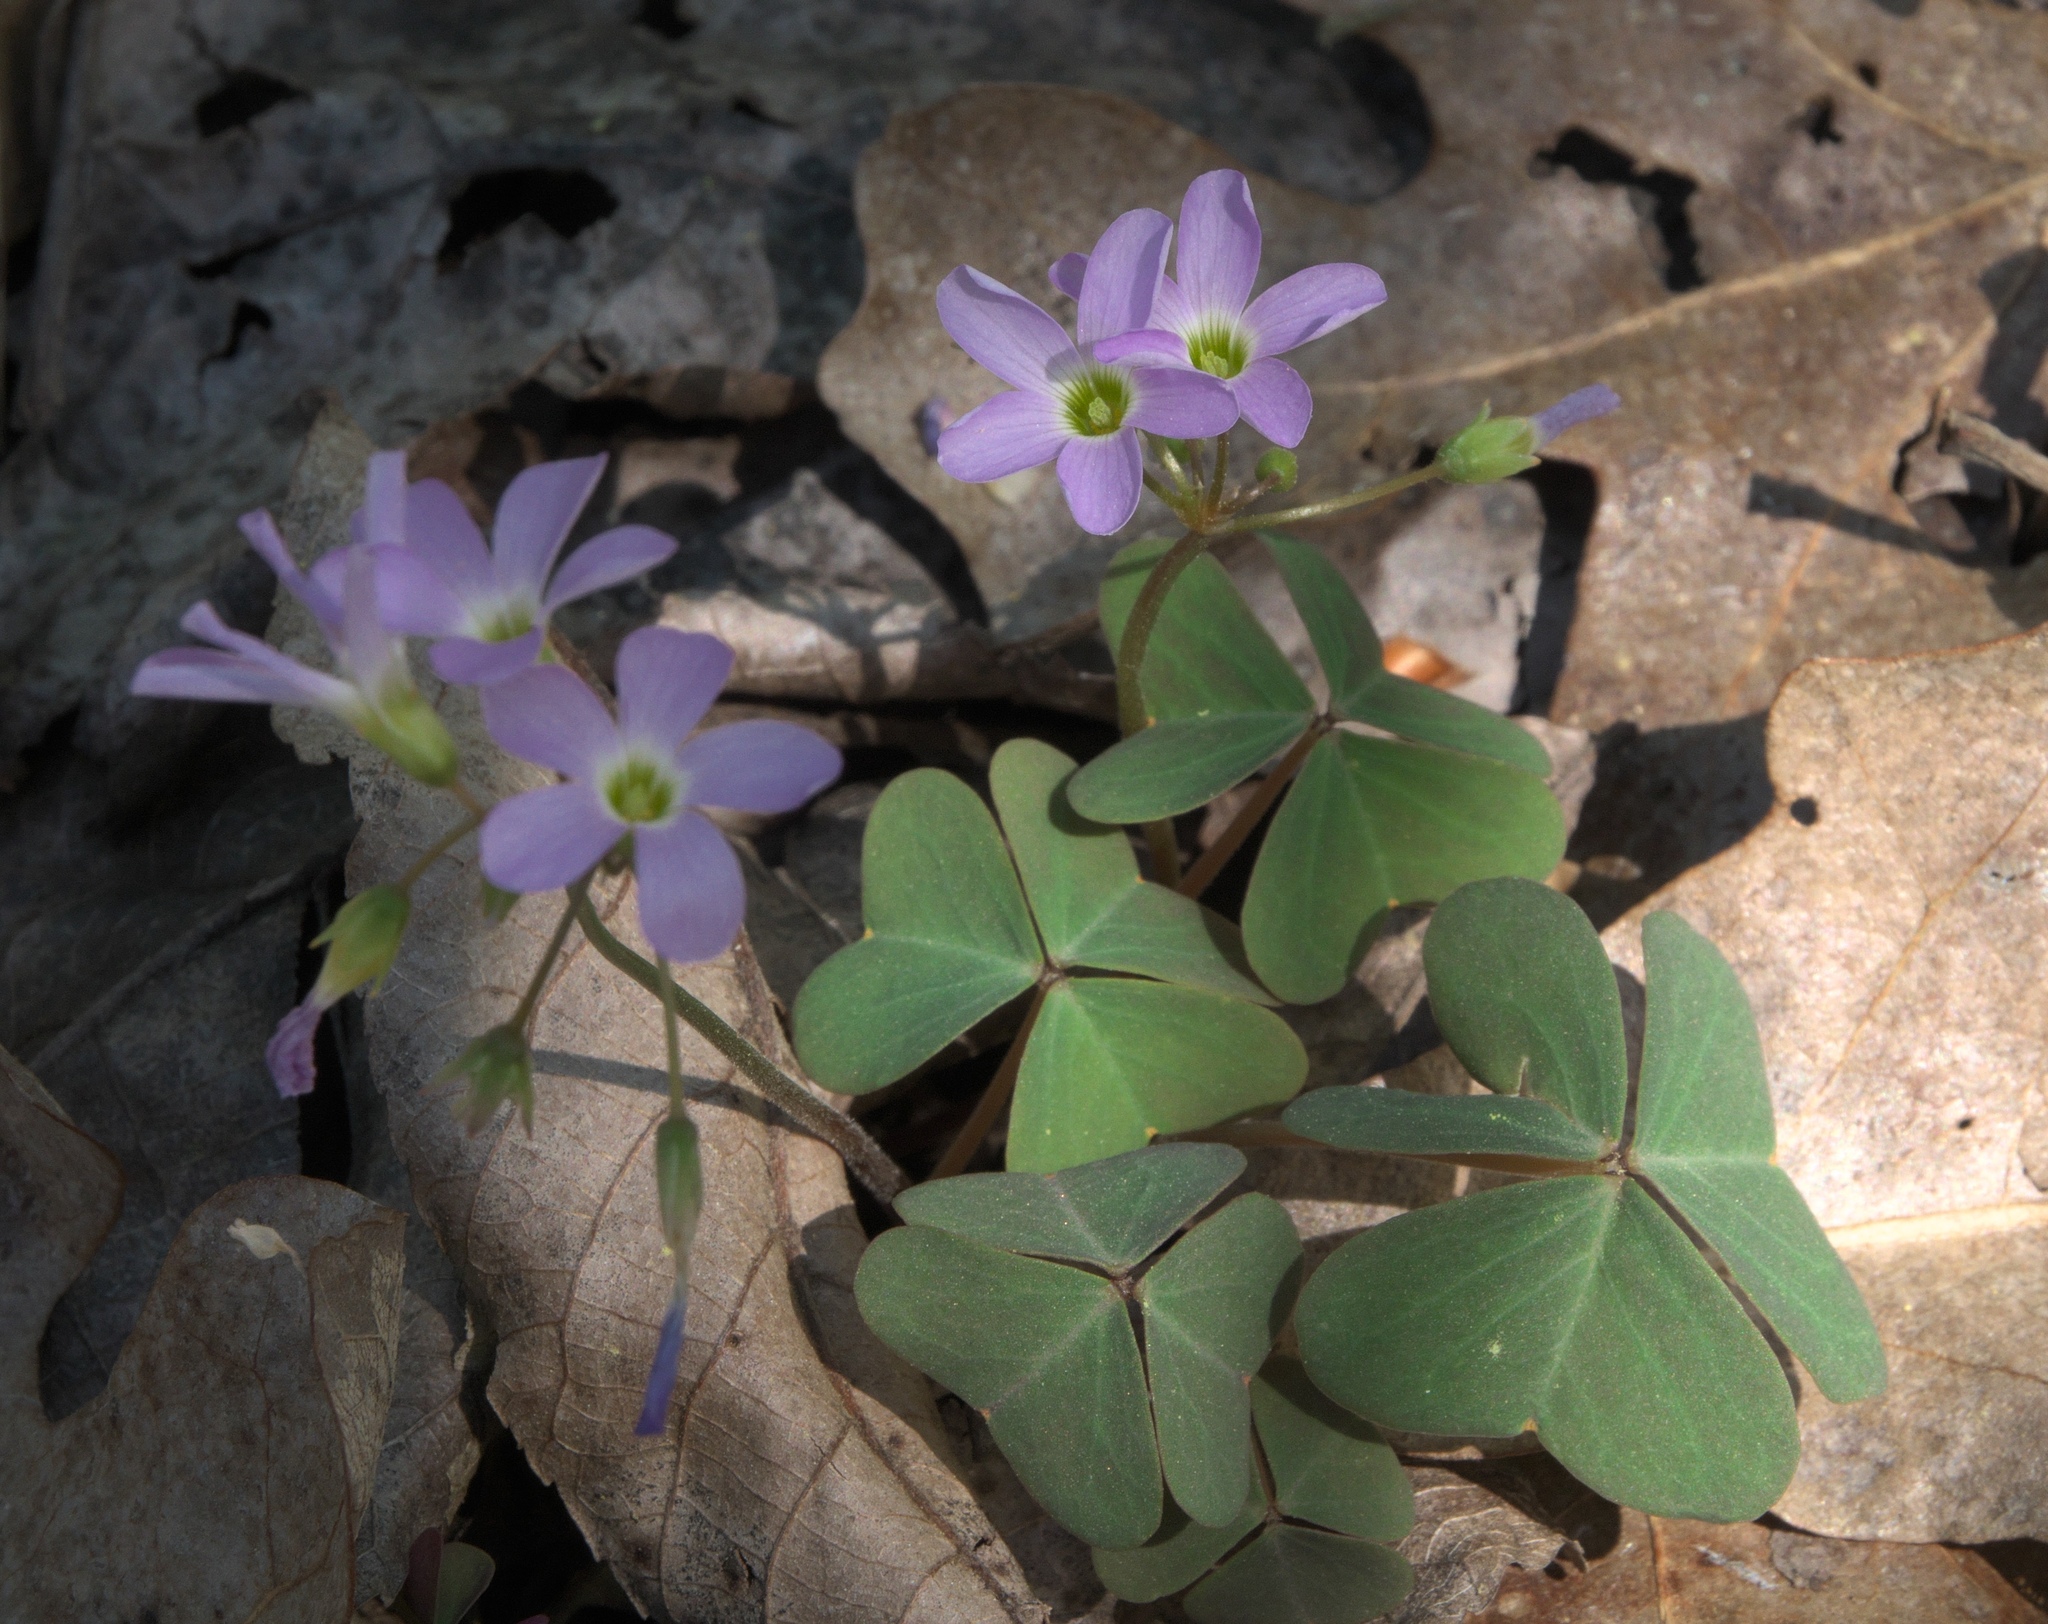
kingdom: Plantae
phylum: Tracheophyta
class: Magnoliopsida
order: Oxalidales
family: Oxalidaceae
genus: Oxalis
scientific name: Oxalis violacea
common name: Violet wood-sorrel
